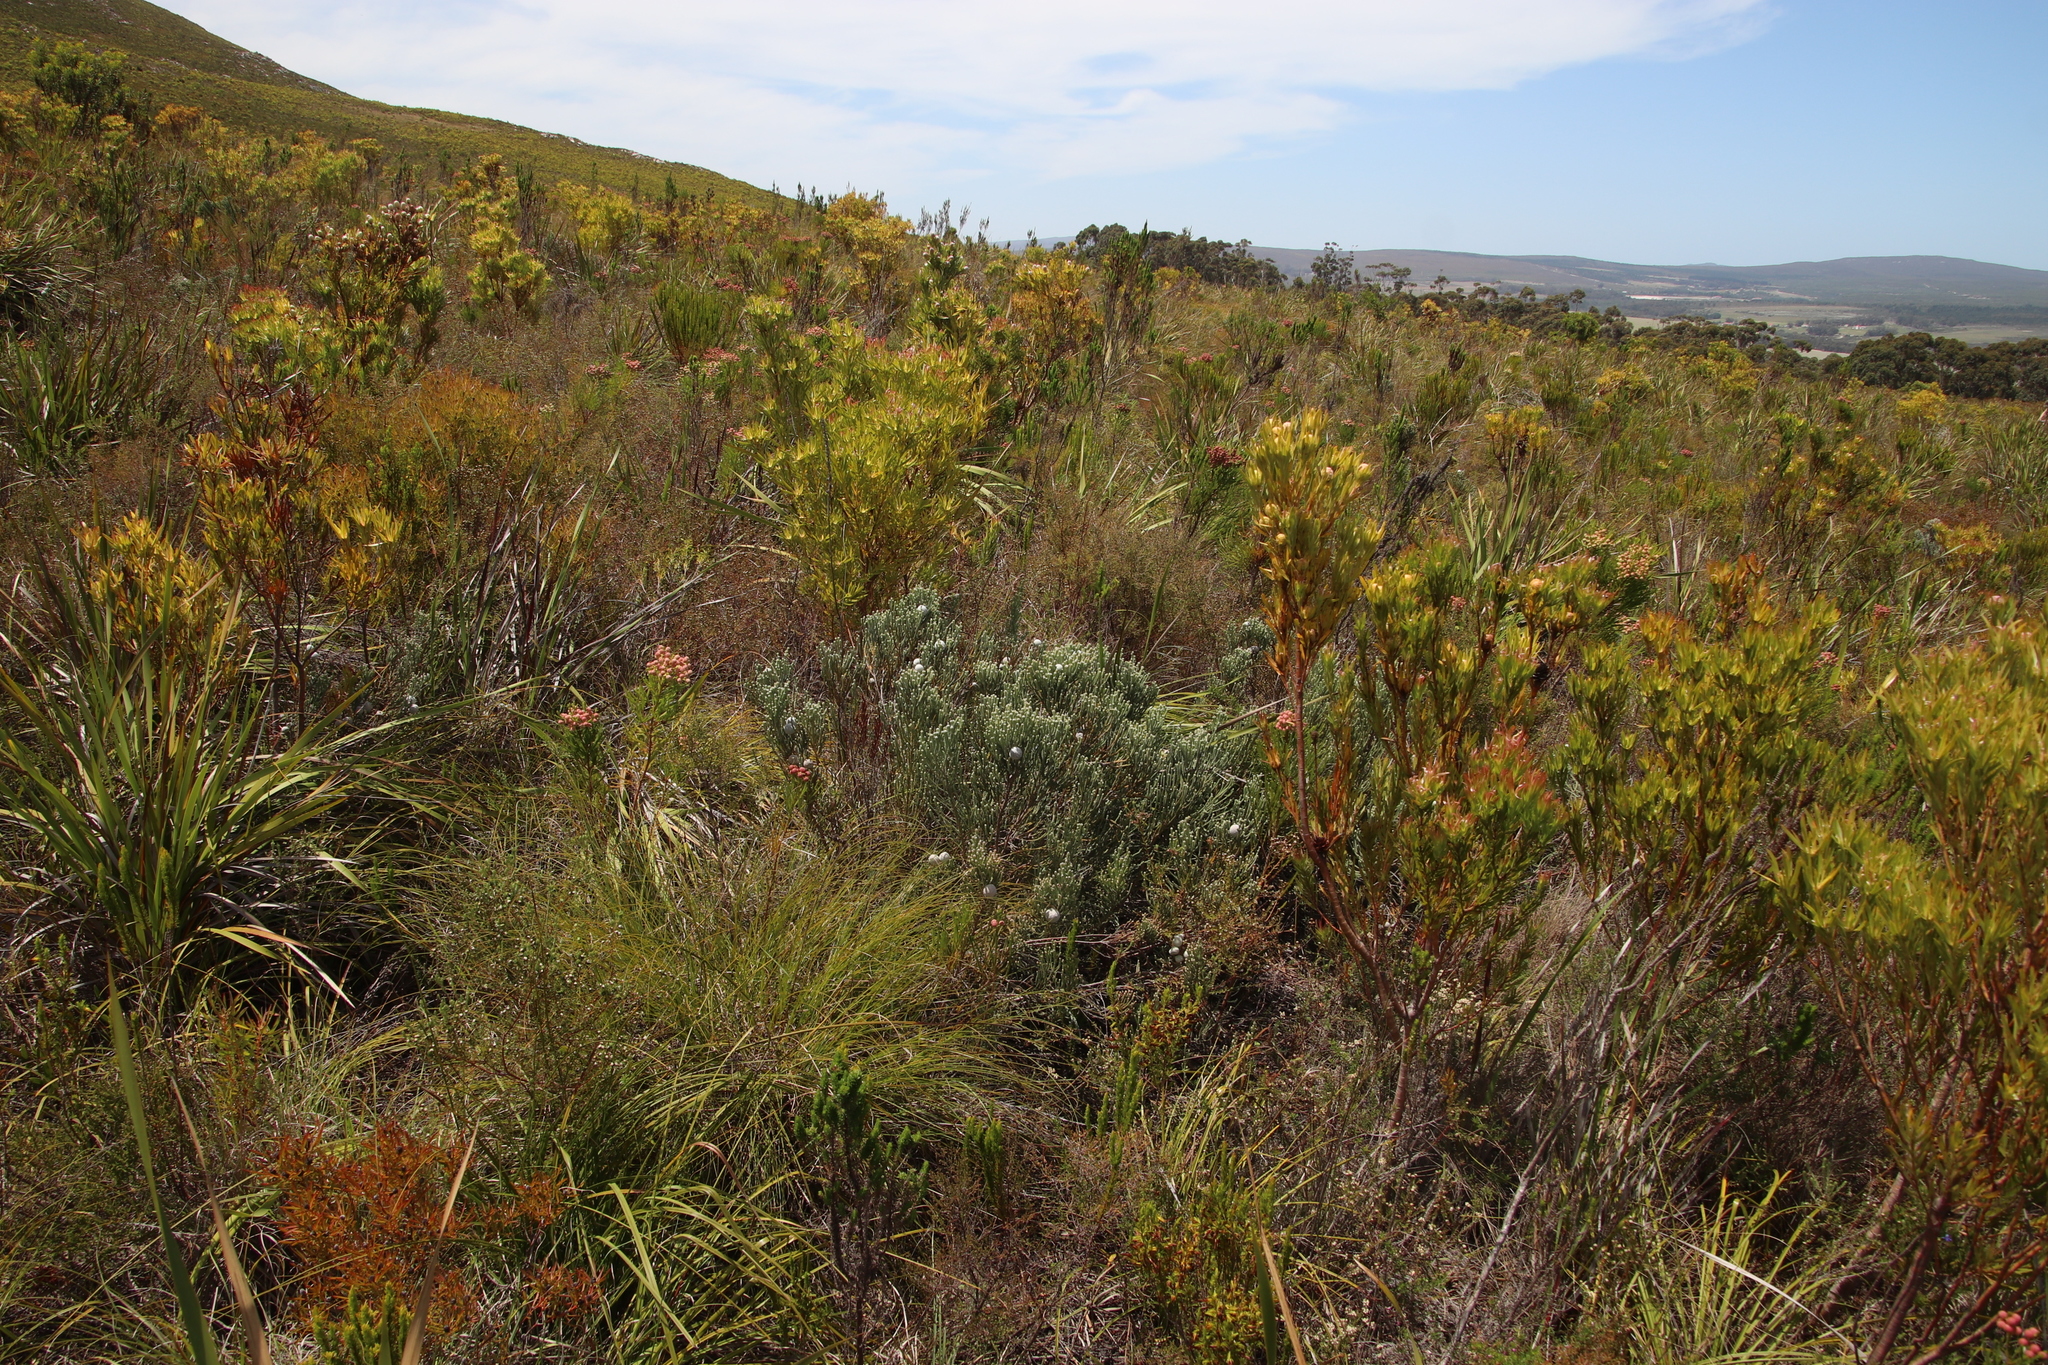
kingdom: Plantae
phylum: Tracheophyta
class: Magnoliopsida
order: Bruniales
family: Bruniaceae
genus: Brunia
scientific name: Brunia laevis
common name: Silver brunia
